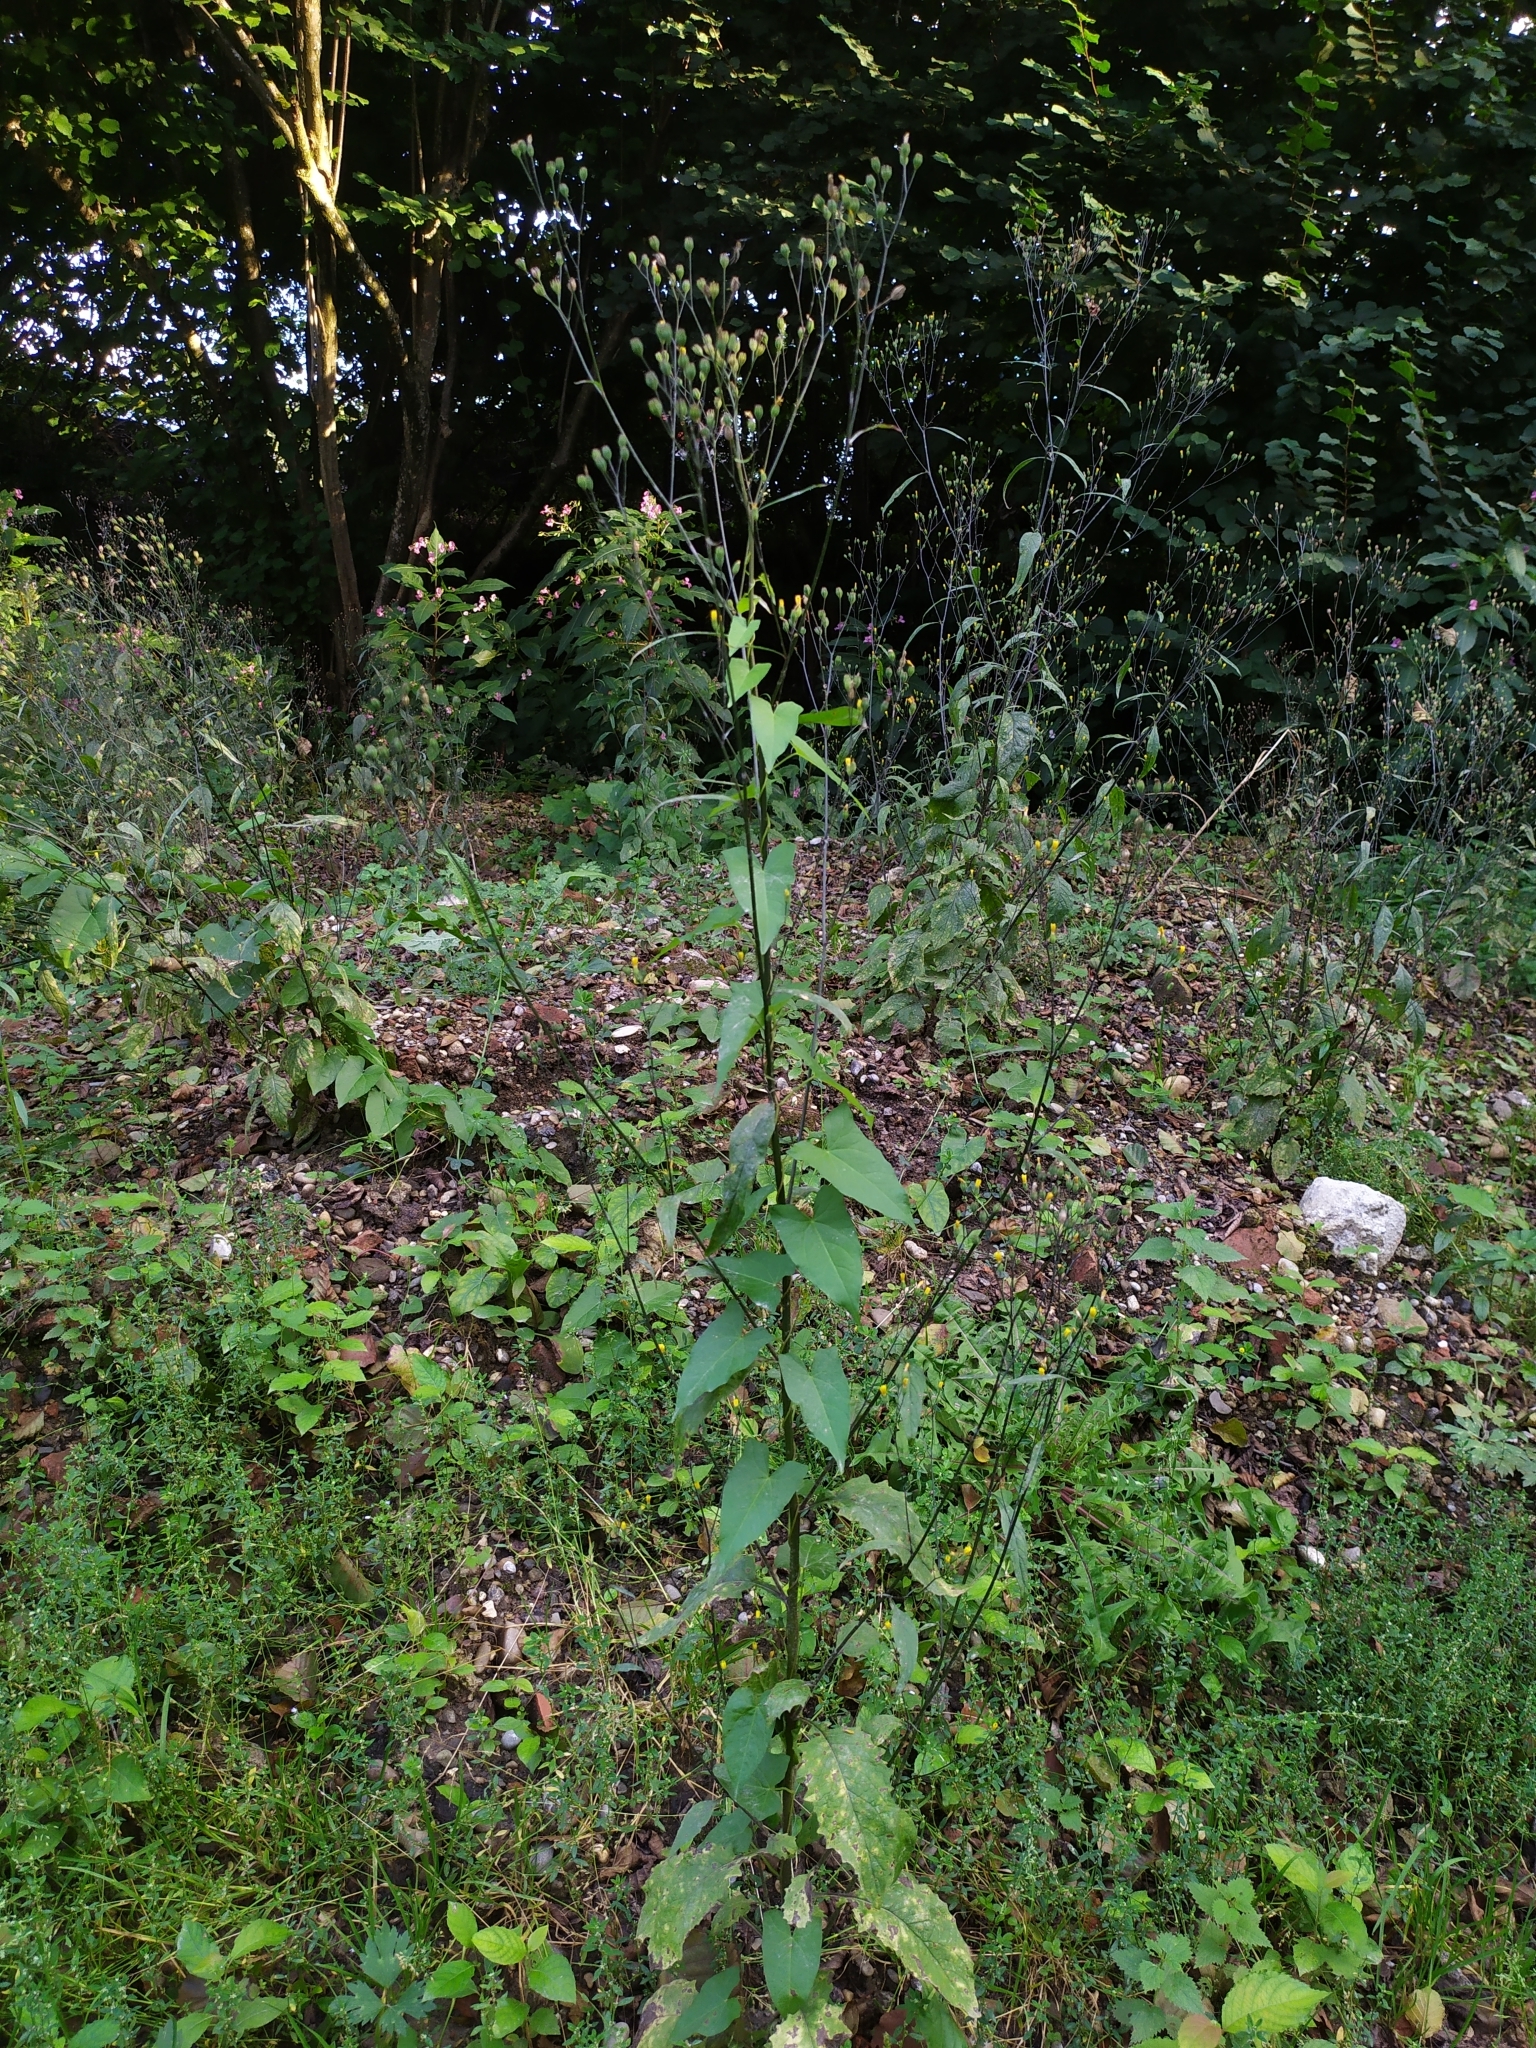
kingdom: Plantae
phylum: Tracheophyta
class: Magnoliopsida
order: Asterales
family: Asteraceae
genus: Lapsana
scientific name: Lapsana communis
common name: Nipplewort
